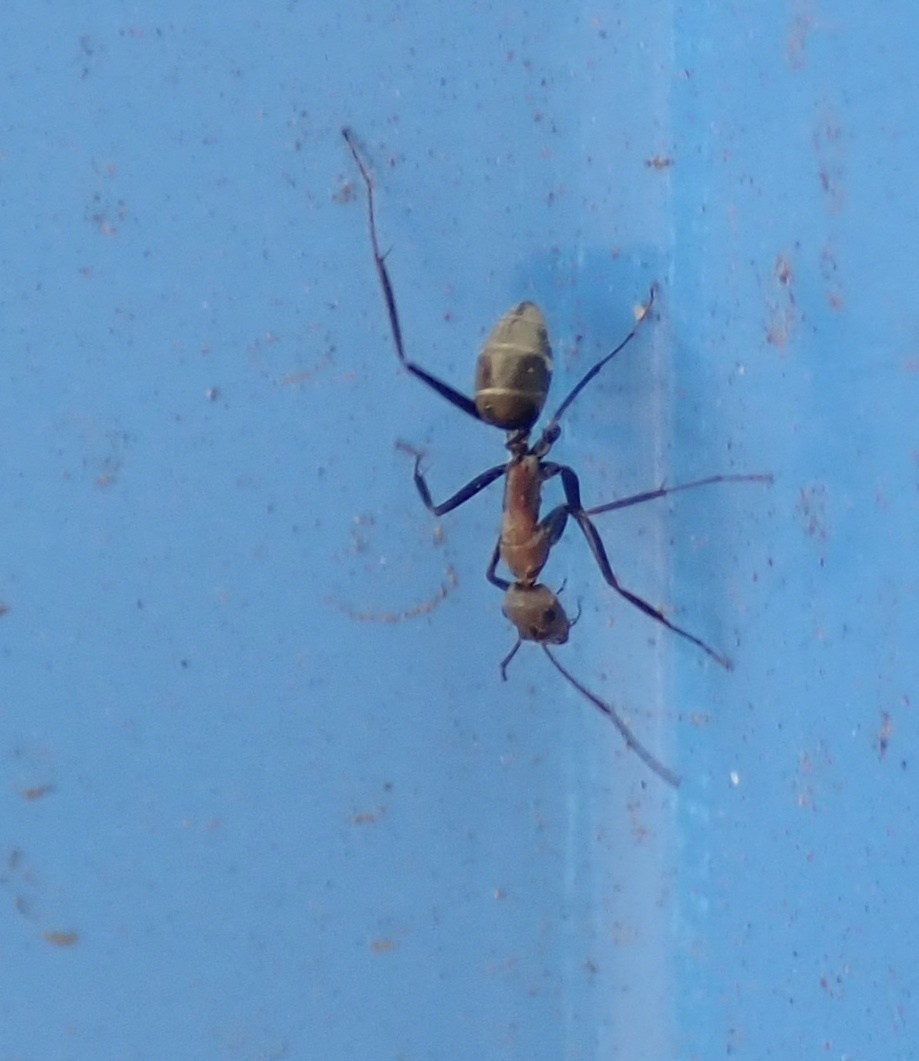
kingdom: Animalia
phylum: Arthropoda
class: Insecta
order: Hymenoptera
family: Formicidae
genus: Camponotus
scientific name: Camponotus rufoglaucus
